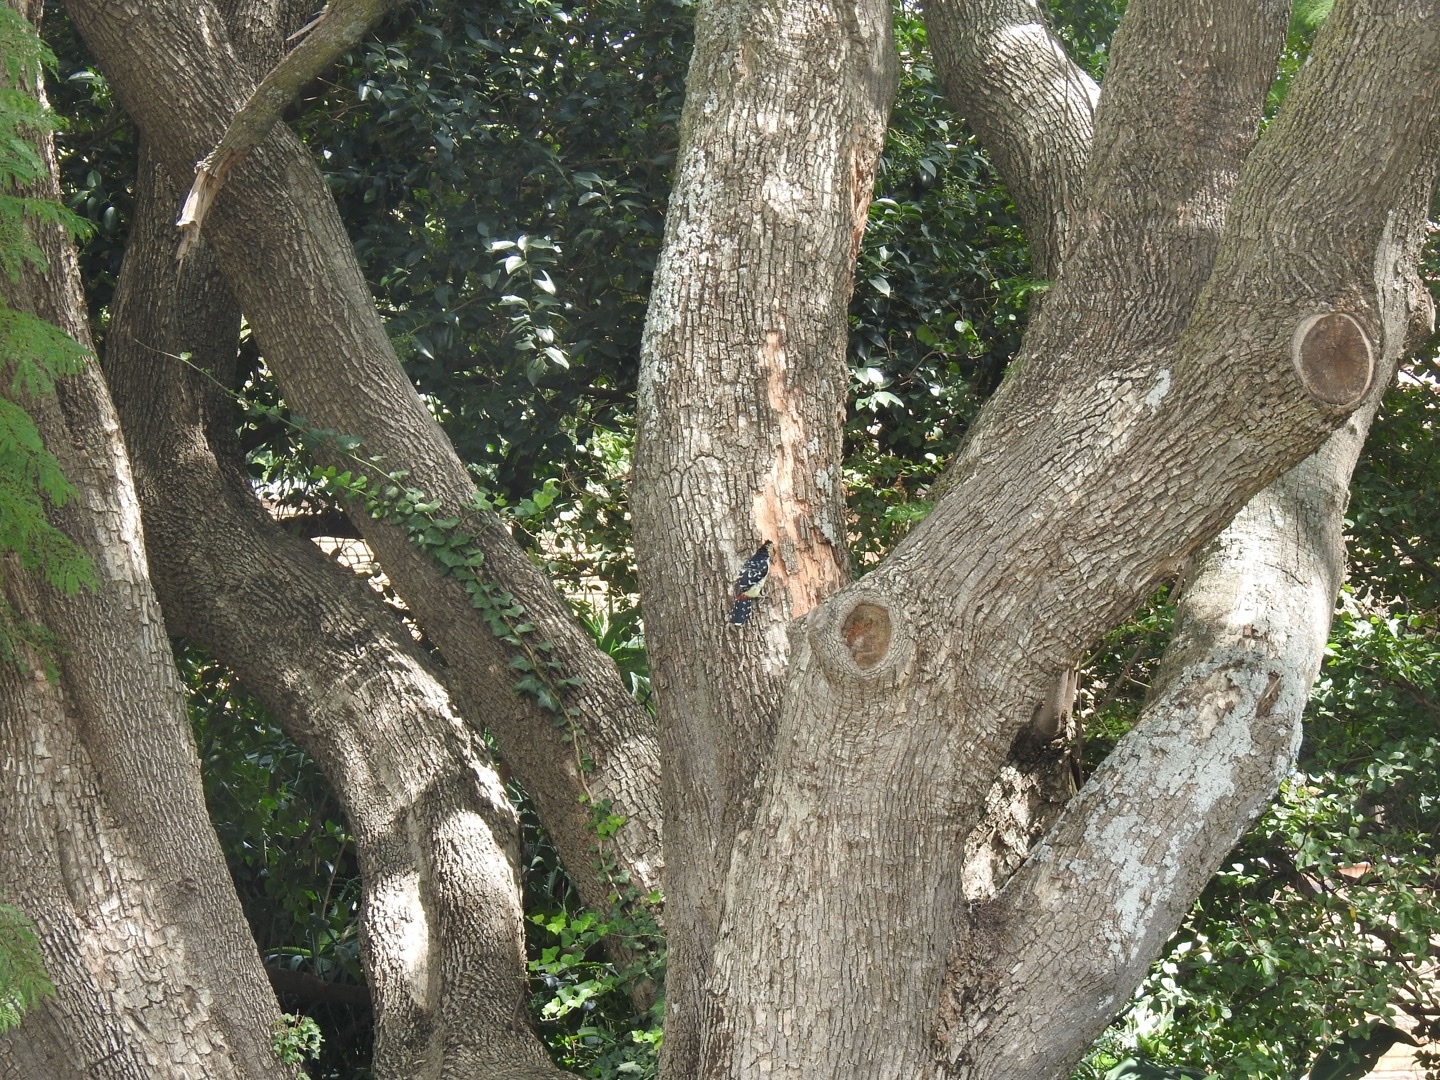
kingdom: Animalia
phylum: Chordata
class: Aves
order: Piciformes
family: Lybiidae
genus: Trachyphonus
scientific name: Trachyphonus vaillantii
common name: Crested barbet
